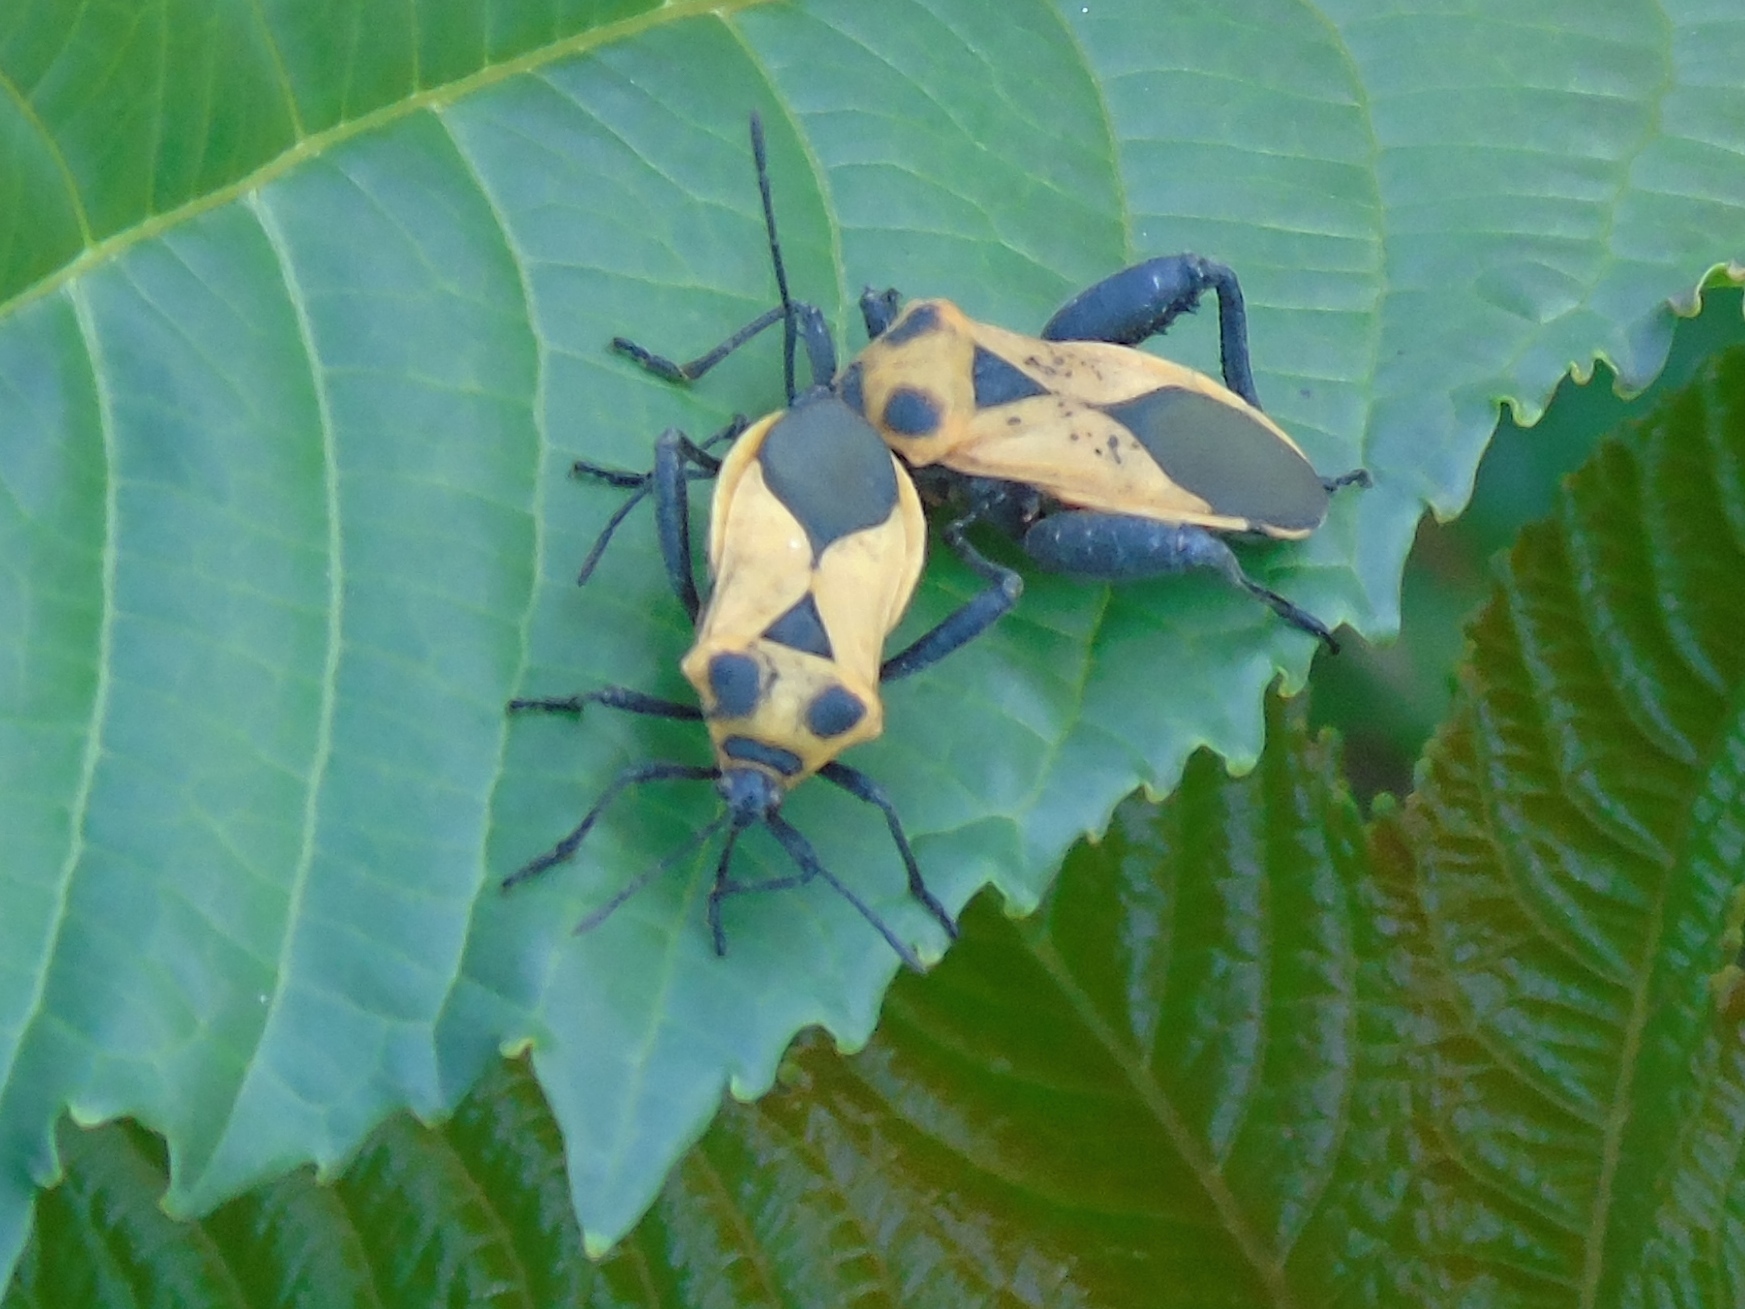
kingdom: Animalia
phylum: Arthropoda
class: Insecta
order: Hemiptera
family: Coreidae
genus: Sagotylus
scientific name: Sagotylus confluens
